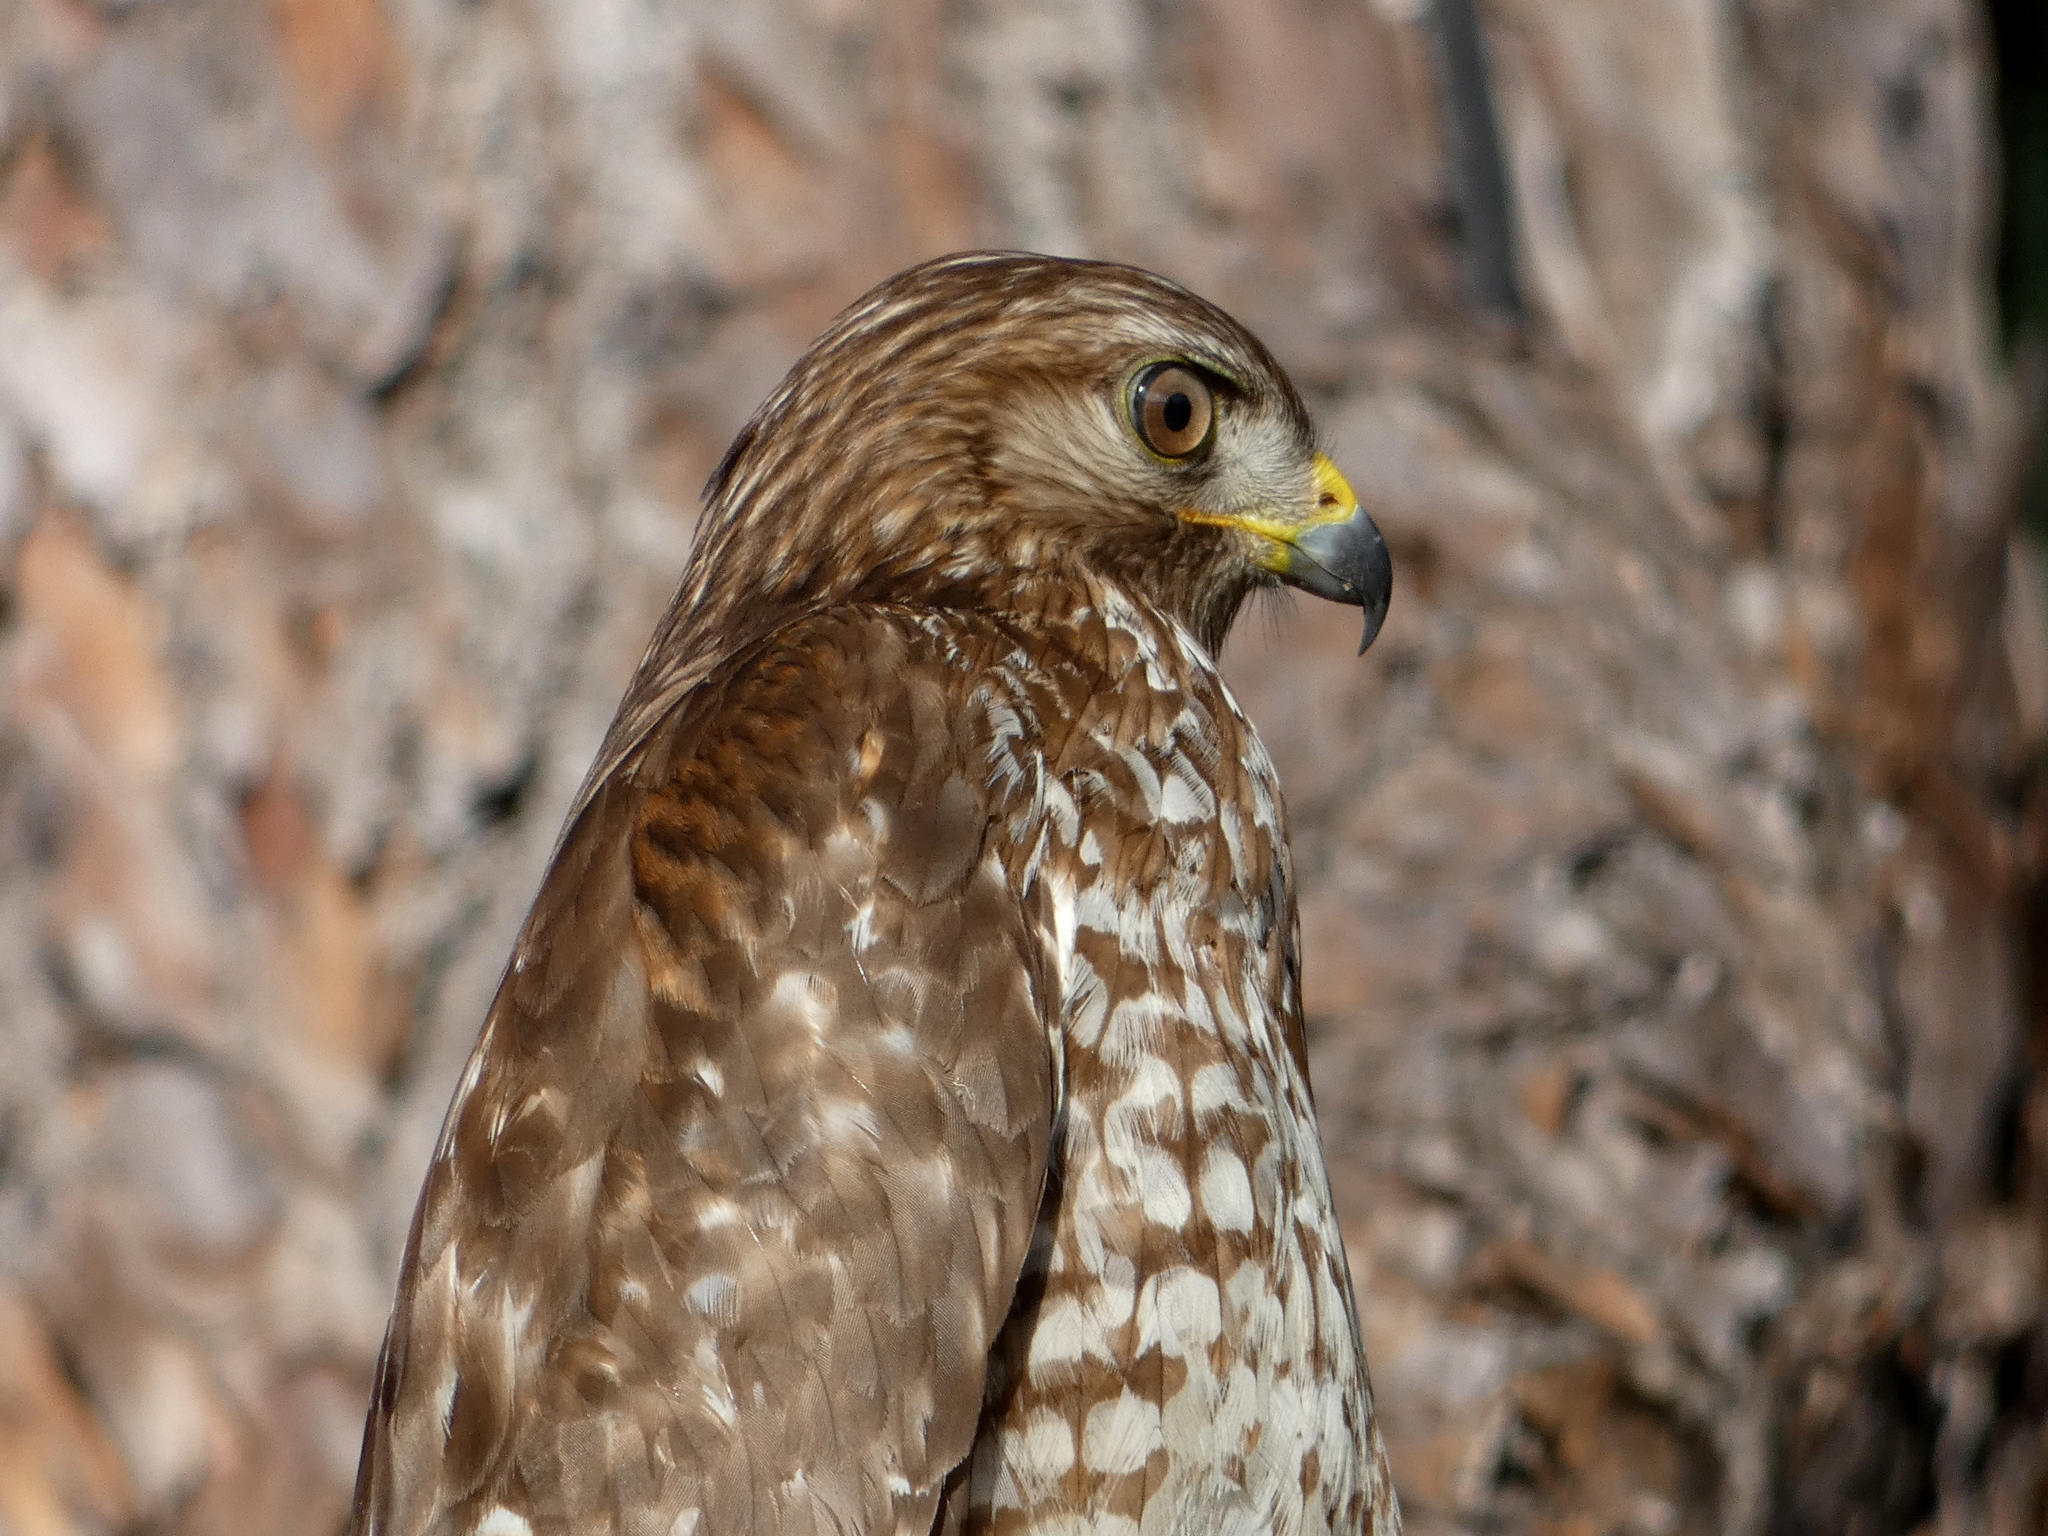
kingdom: Animalia
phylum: Chordata
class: Aves
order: Accipitriformes
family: Accipitridae
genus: Buteo
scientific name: Buteo lineatus
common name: Red-shouldered hawk
